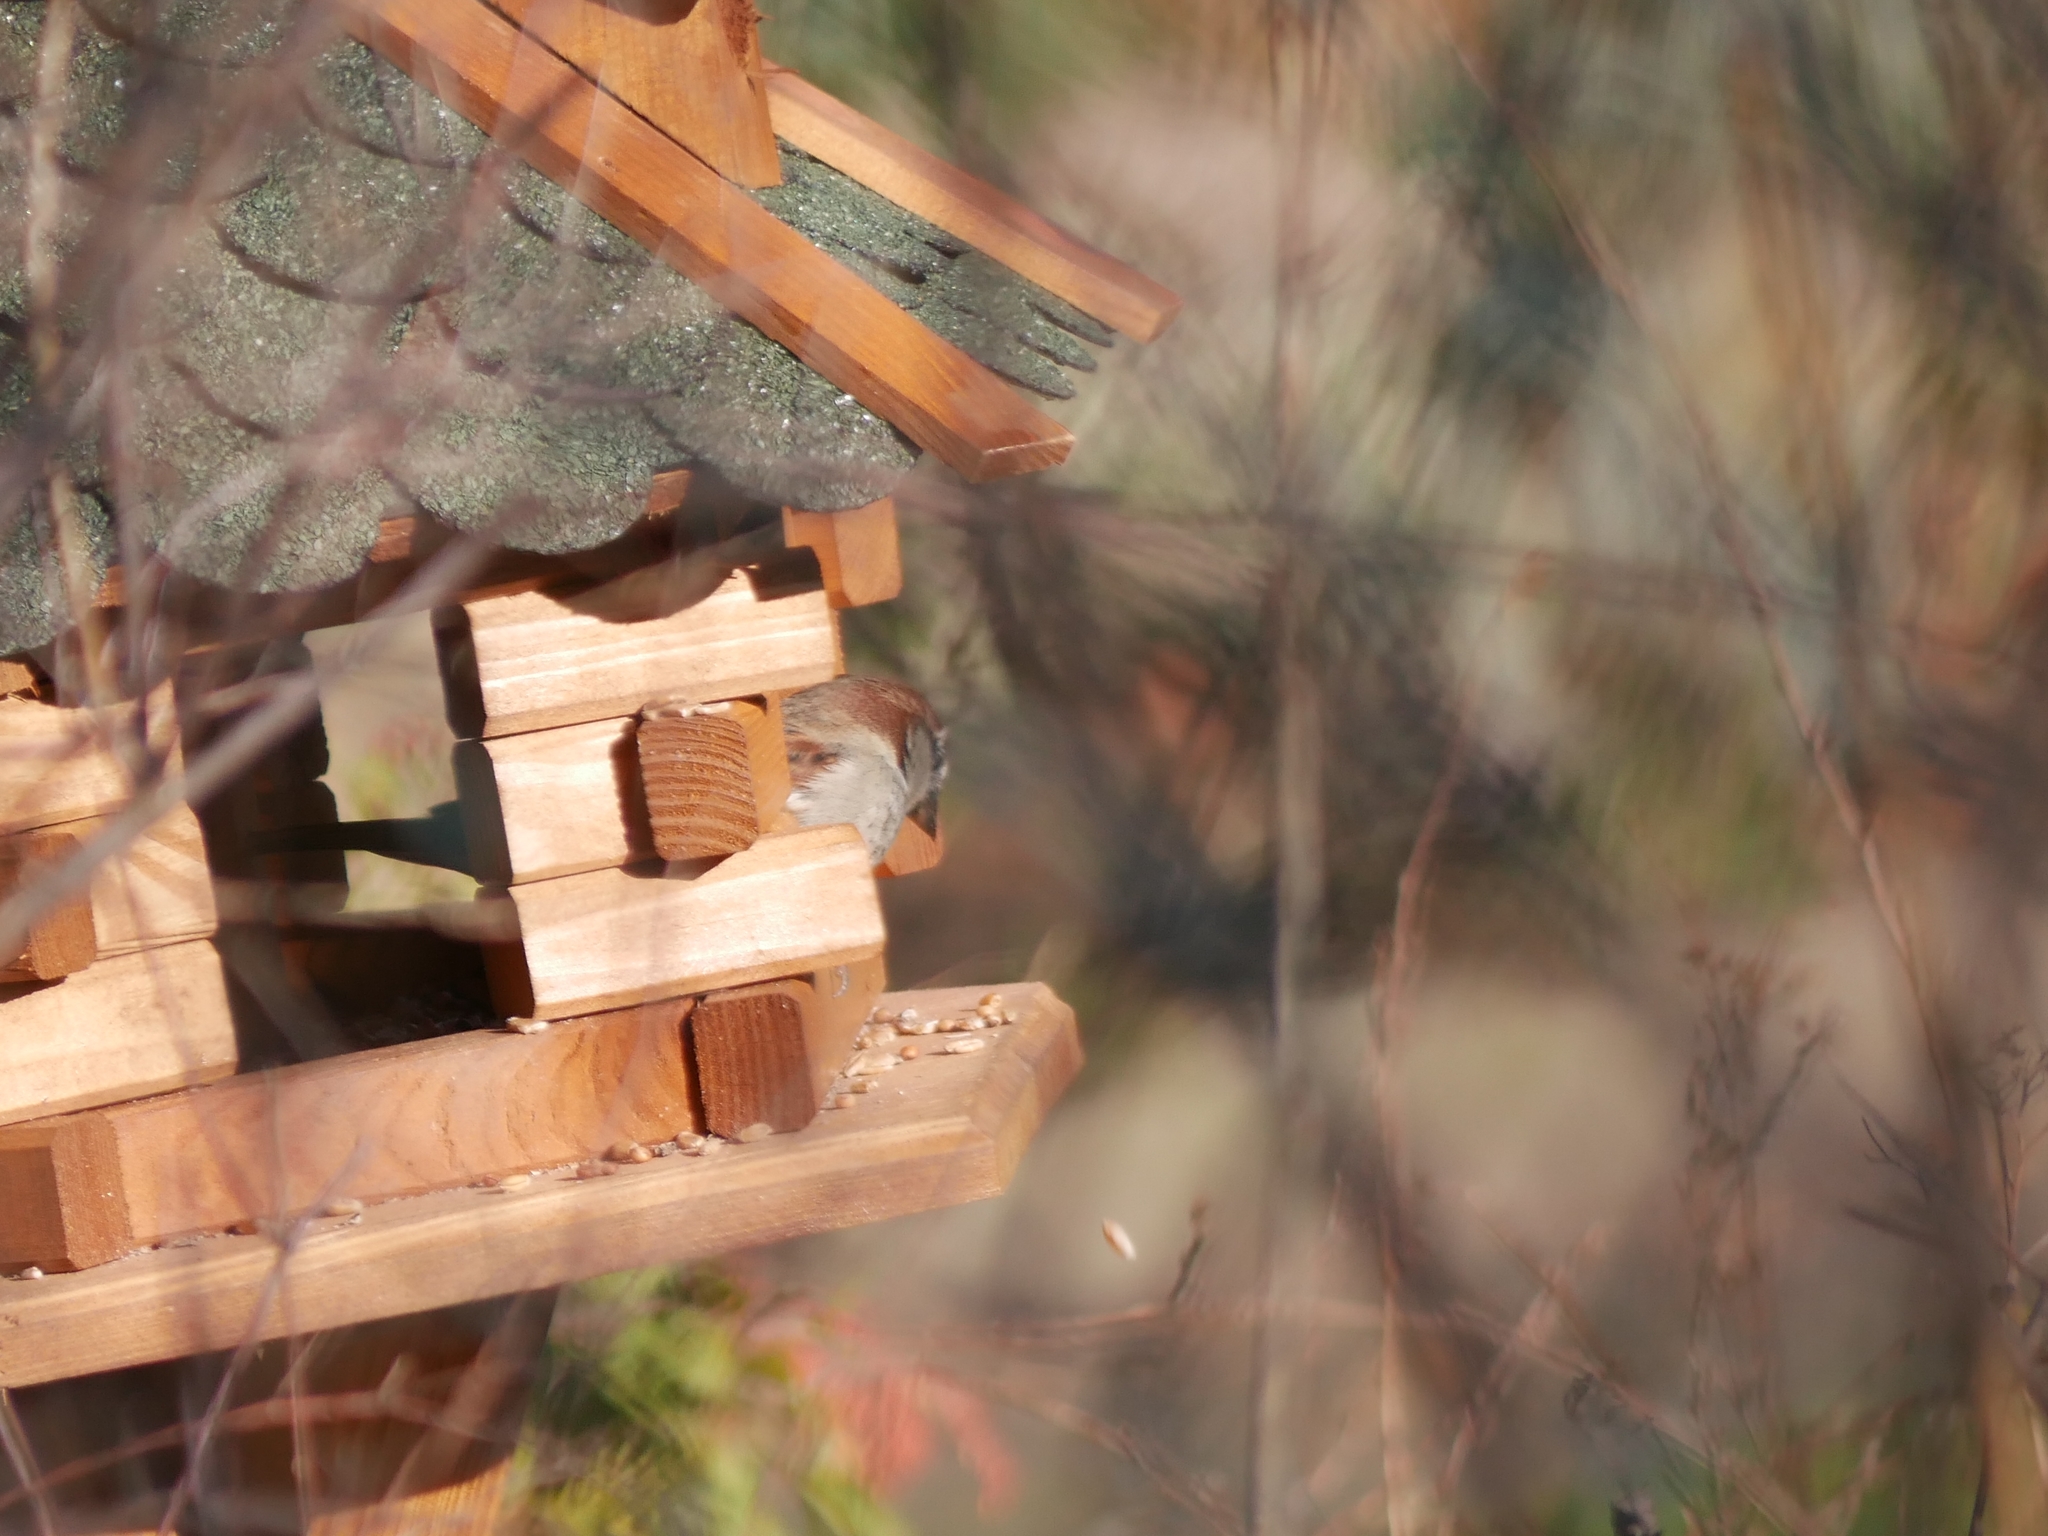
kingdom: Animalia
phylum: Chordata
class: Aves
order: Passeriformes
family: Passeridae
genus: Passer
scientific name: Passer domesticus
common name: House sparrow
